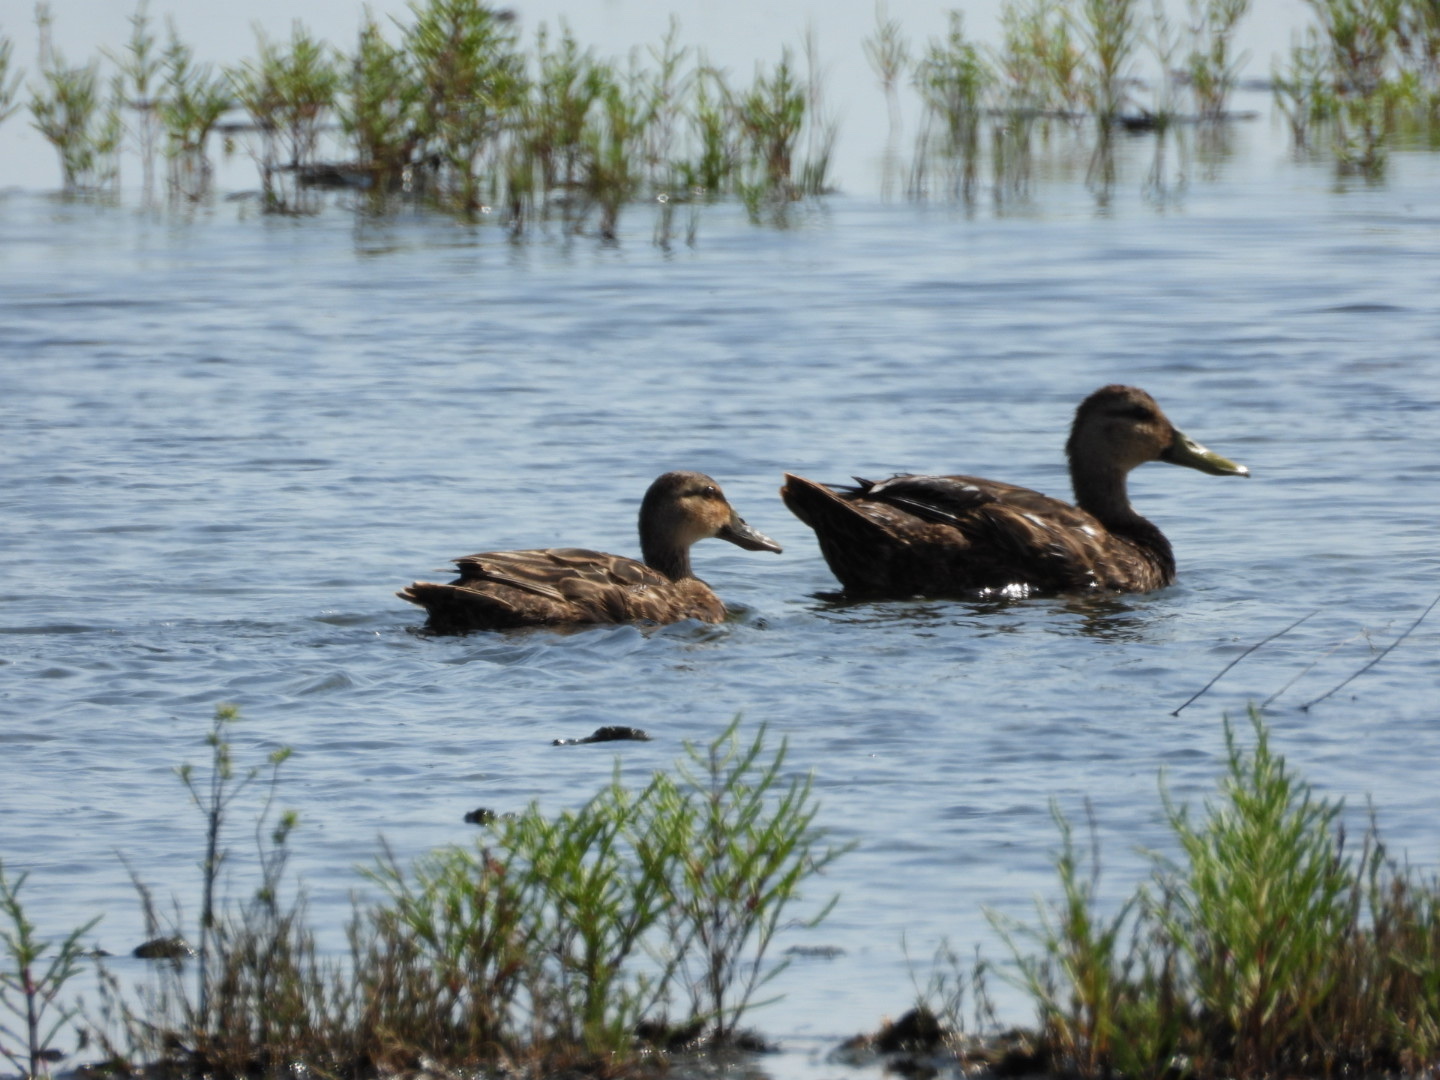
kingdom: Animalia
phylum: Chordata
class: Aves
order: Anseriformes
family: Anatidae
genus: Anas
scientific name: Anas fulvigula
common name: Mottled duck
